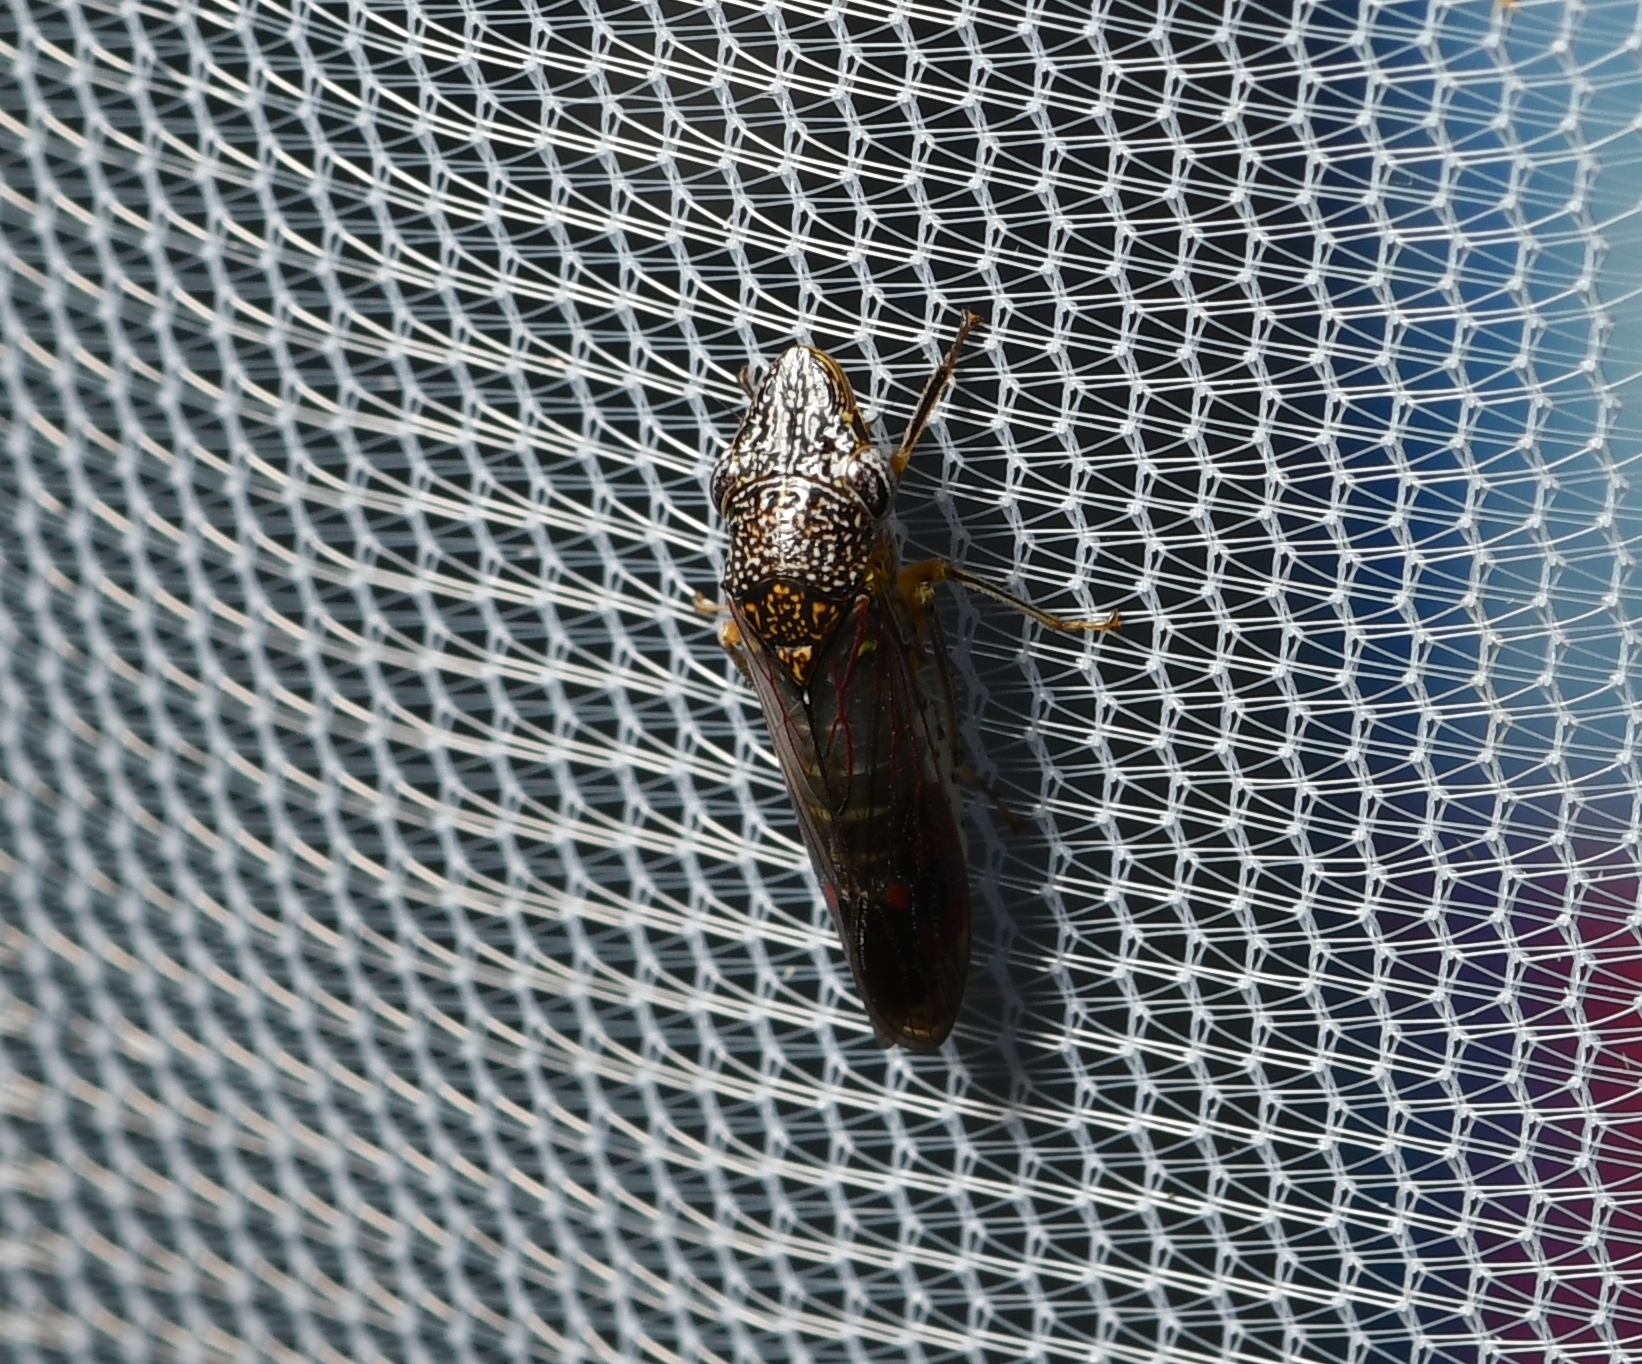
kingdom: Animalia
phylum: Arthropoda
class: Insecta
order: Hemiptera
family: Cicadellidae
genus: Homalodisca
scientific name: Homalodisca liturata
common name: Lacertate sharpshooter
